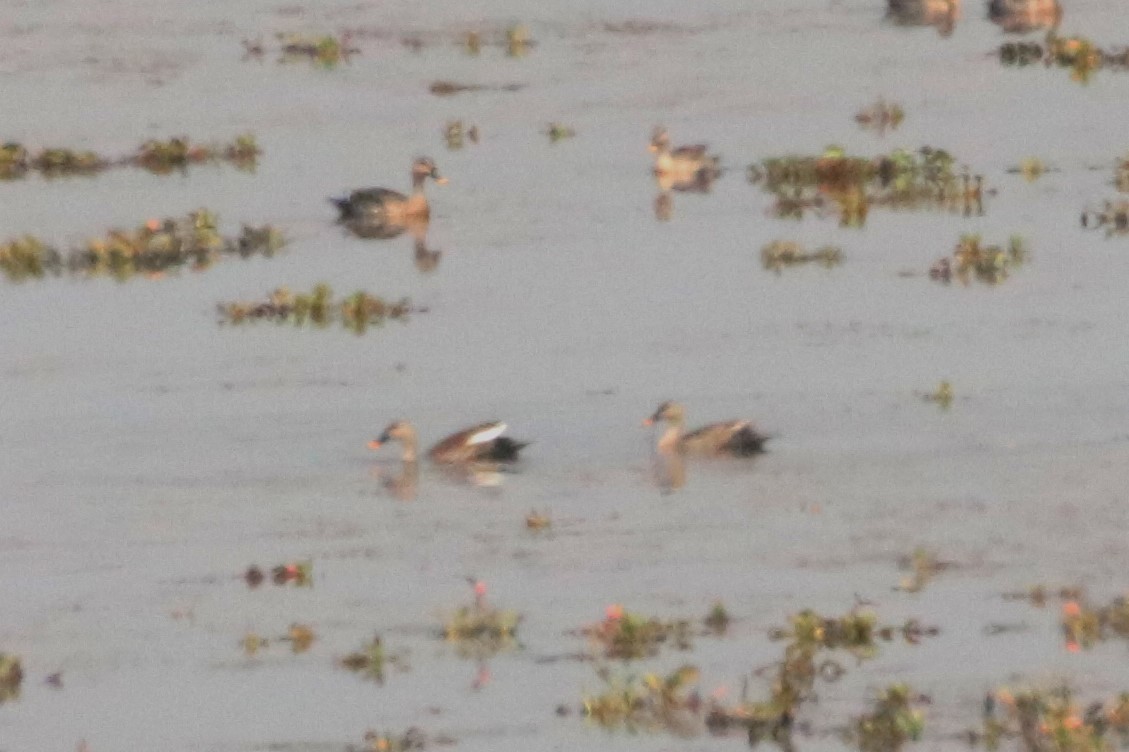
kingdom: Animalia
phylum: Chordata
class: Aves
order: Anseriformes
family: Anatidae
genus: Anas
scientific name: Anas poecilorhyncha
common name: Indian spot-billed duck
